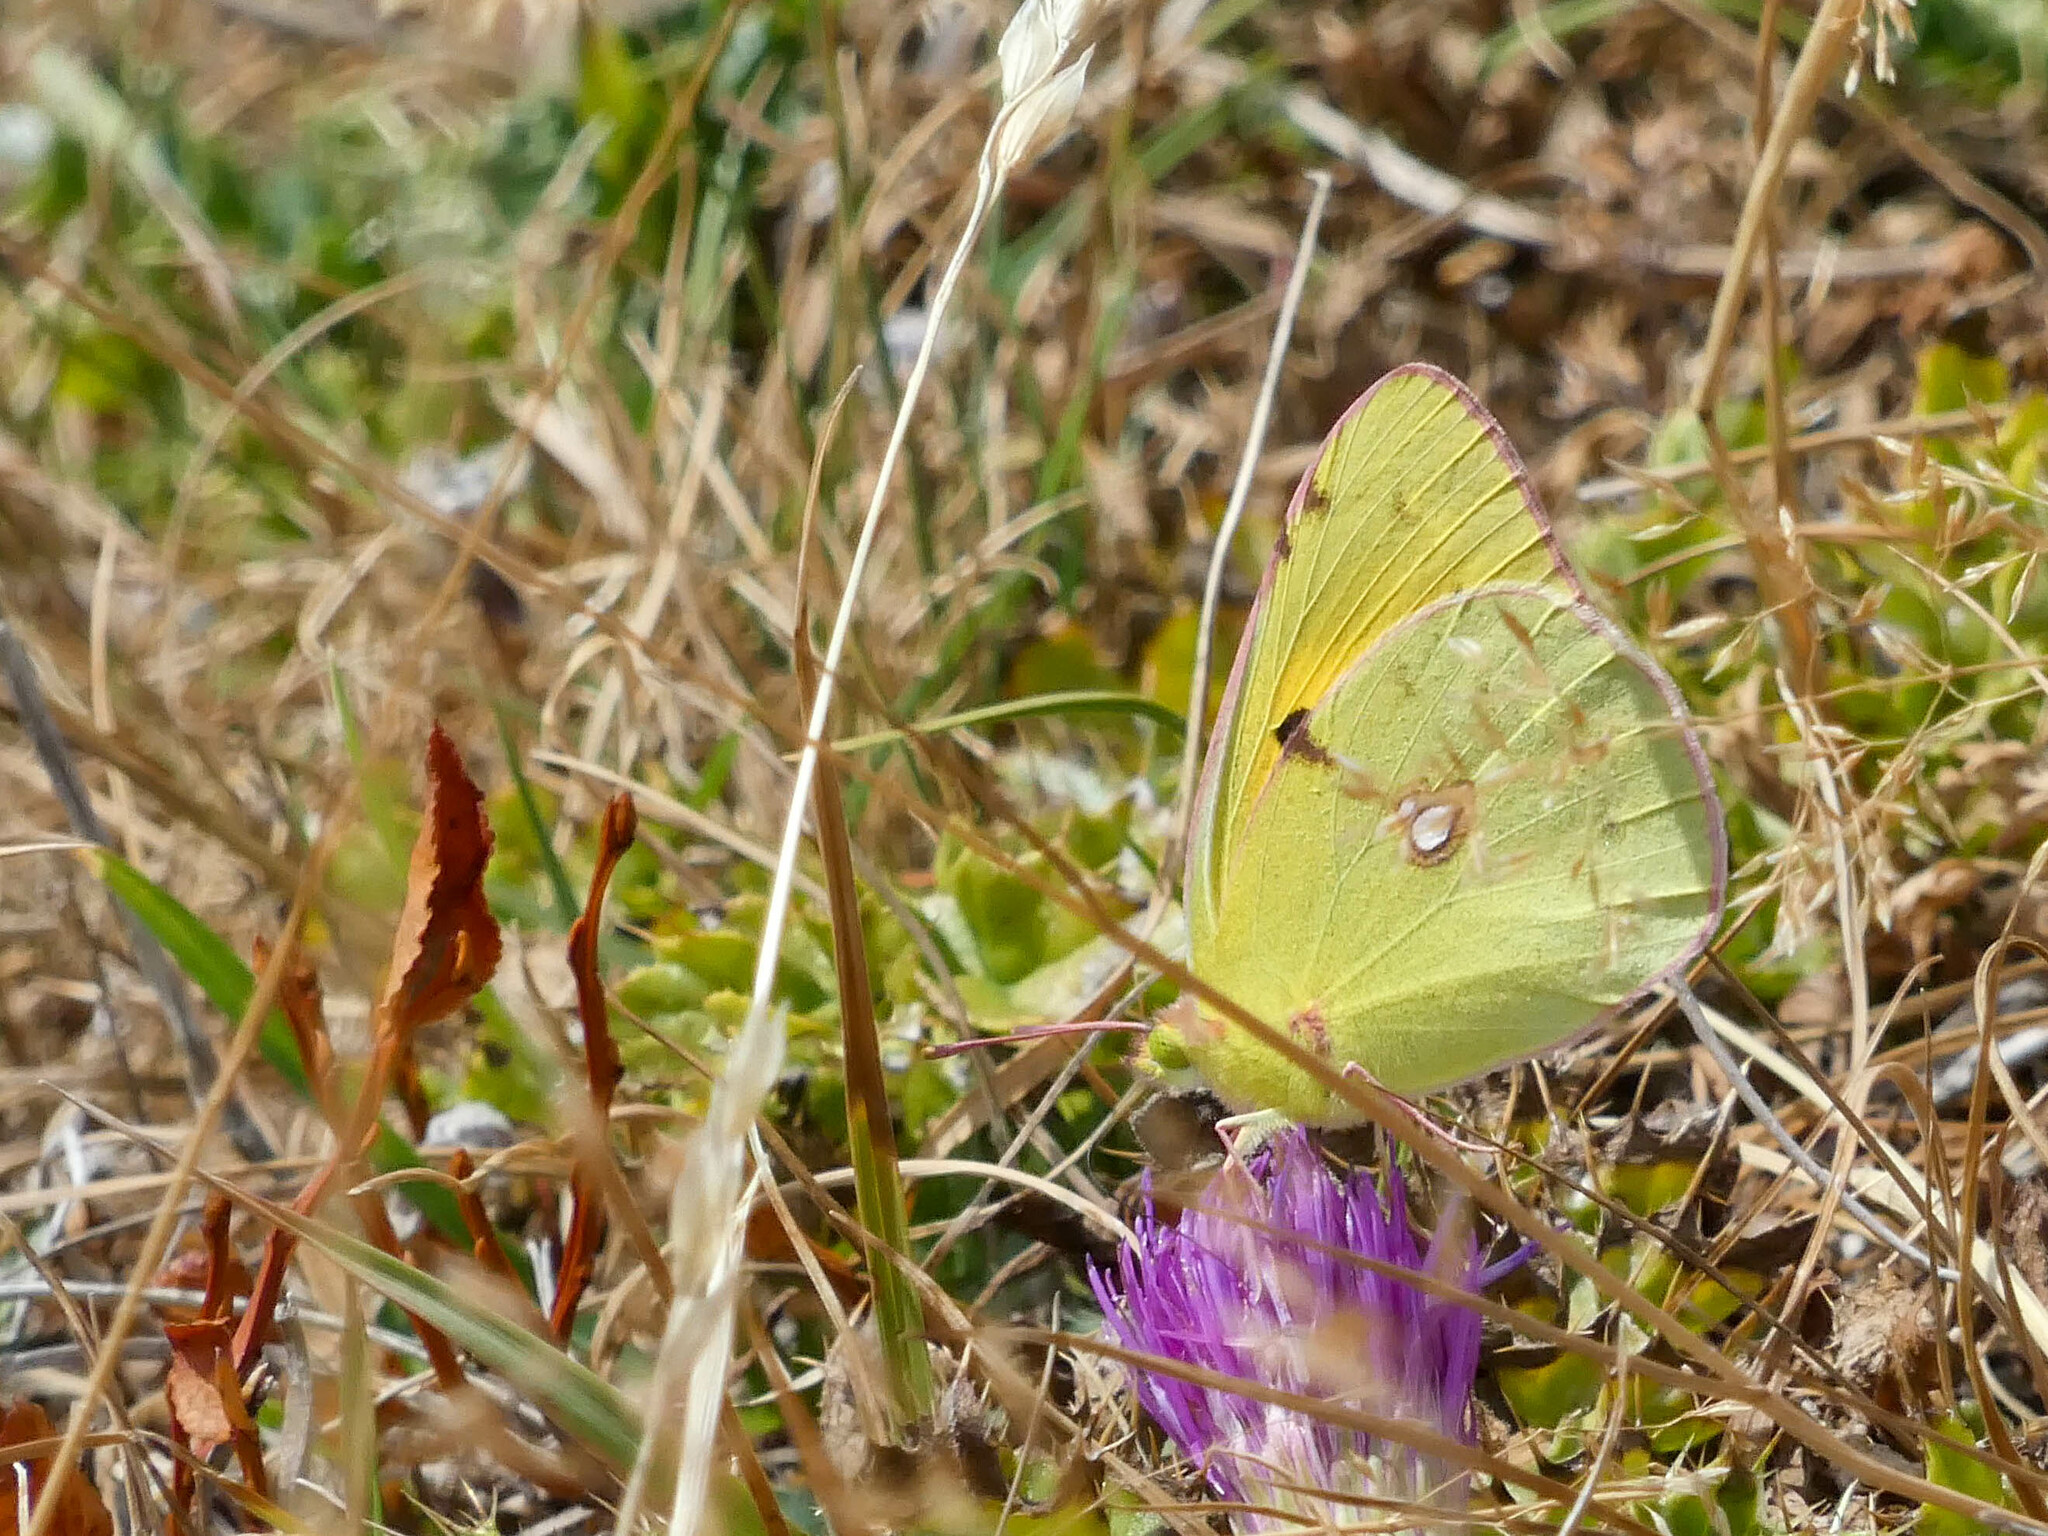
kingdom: Animalia
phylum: Arthropoda
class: Insecta
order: Lepidoptera
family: Pieridae
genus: Colias
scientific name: Colias croceus
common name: Clouded yellow
